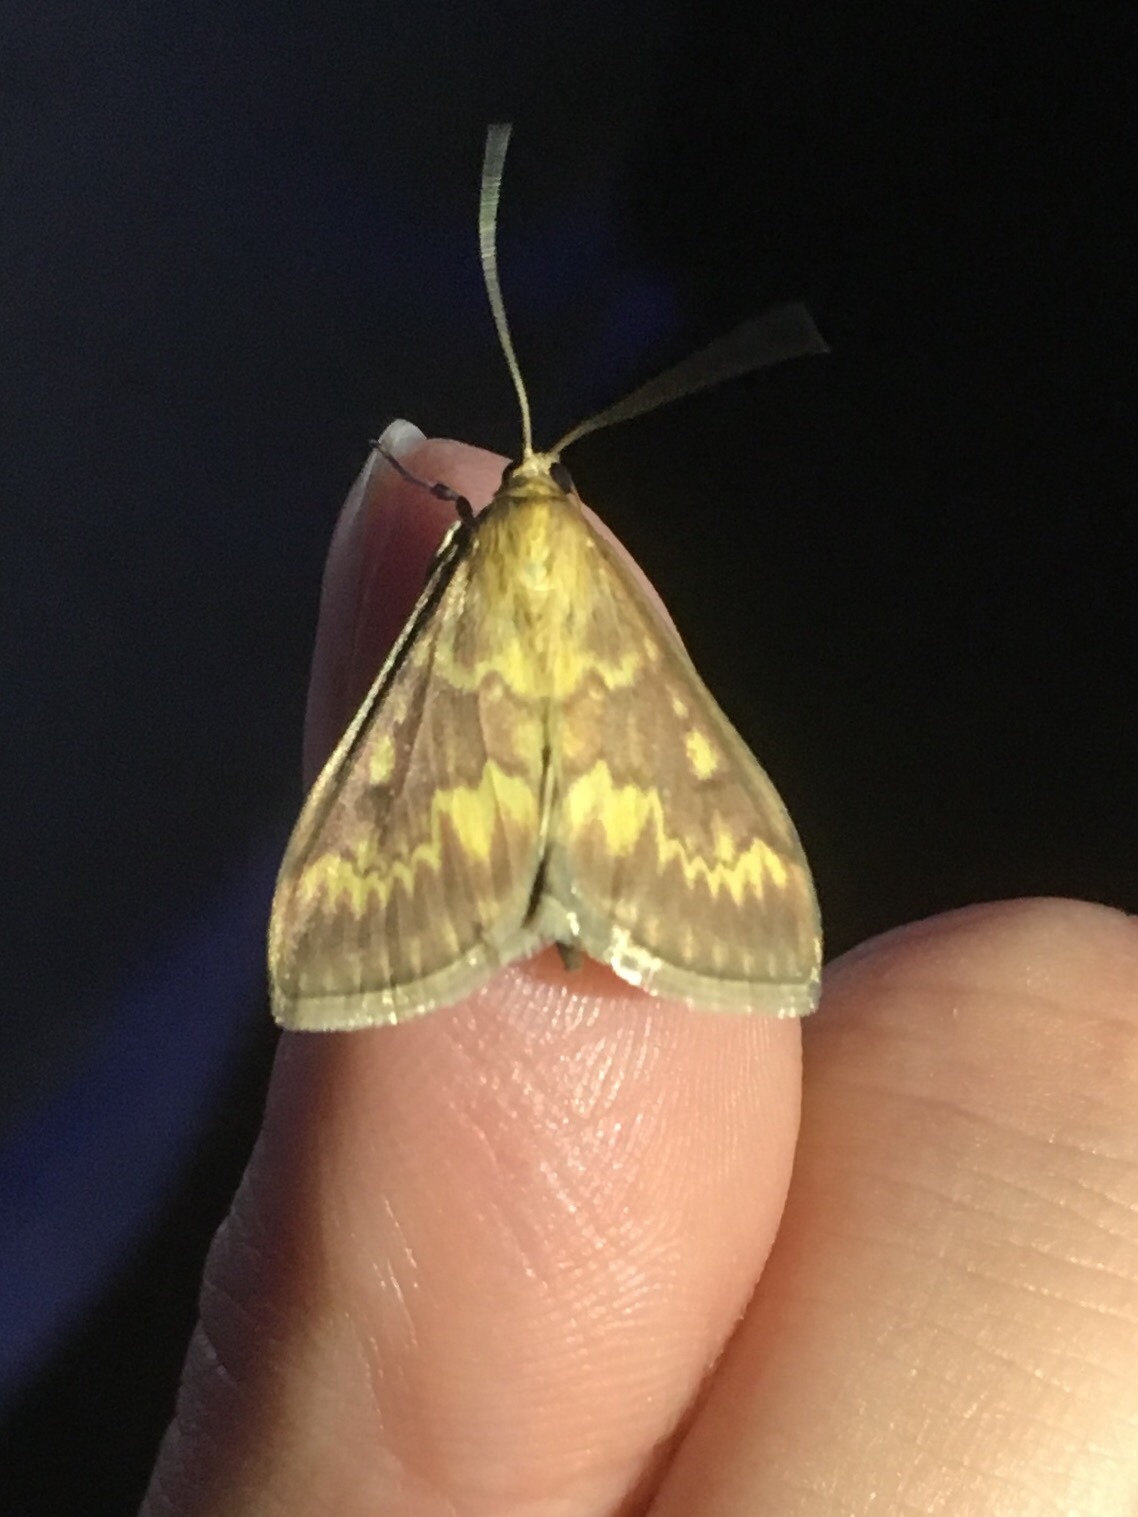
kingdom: Animalia
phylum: Arthropoda
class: Insecta
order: Lepidoptera
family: Crambidae
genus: Ostrinia
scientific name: Ostrinia nubilalis
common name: European corn borer
